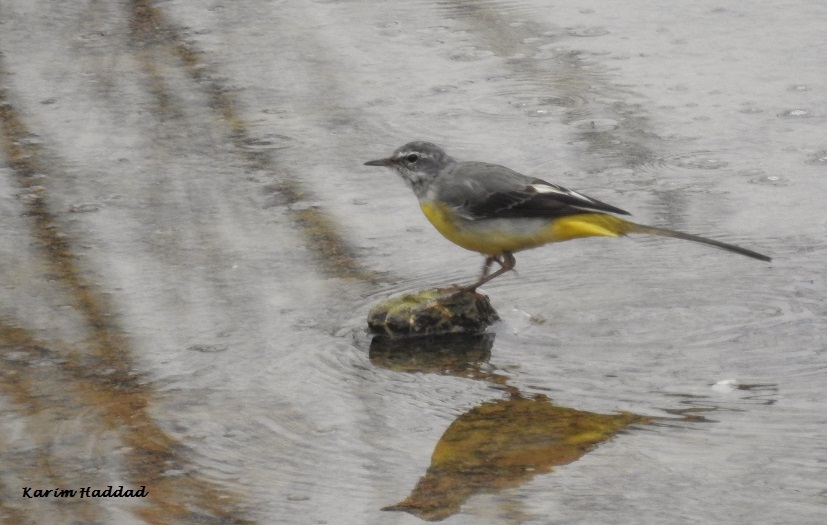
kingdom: Animalia
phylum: Chordata
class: Aves
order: Passeriformes
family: Motacillidae
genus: Motacilla
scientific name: Motacilla cinerea
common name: Grey wagtail
